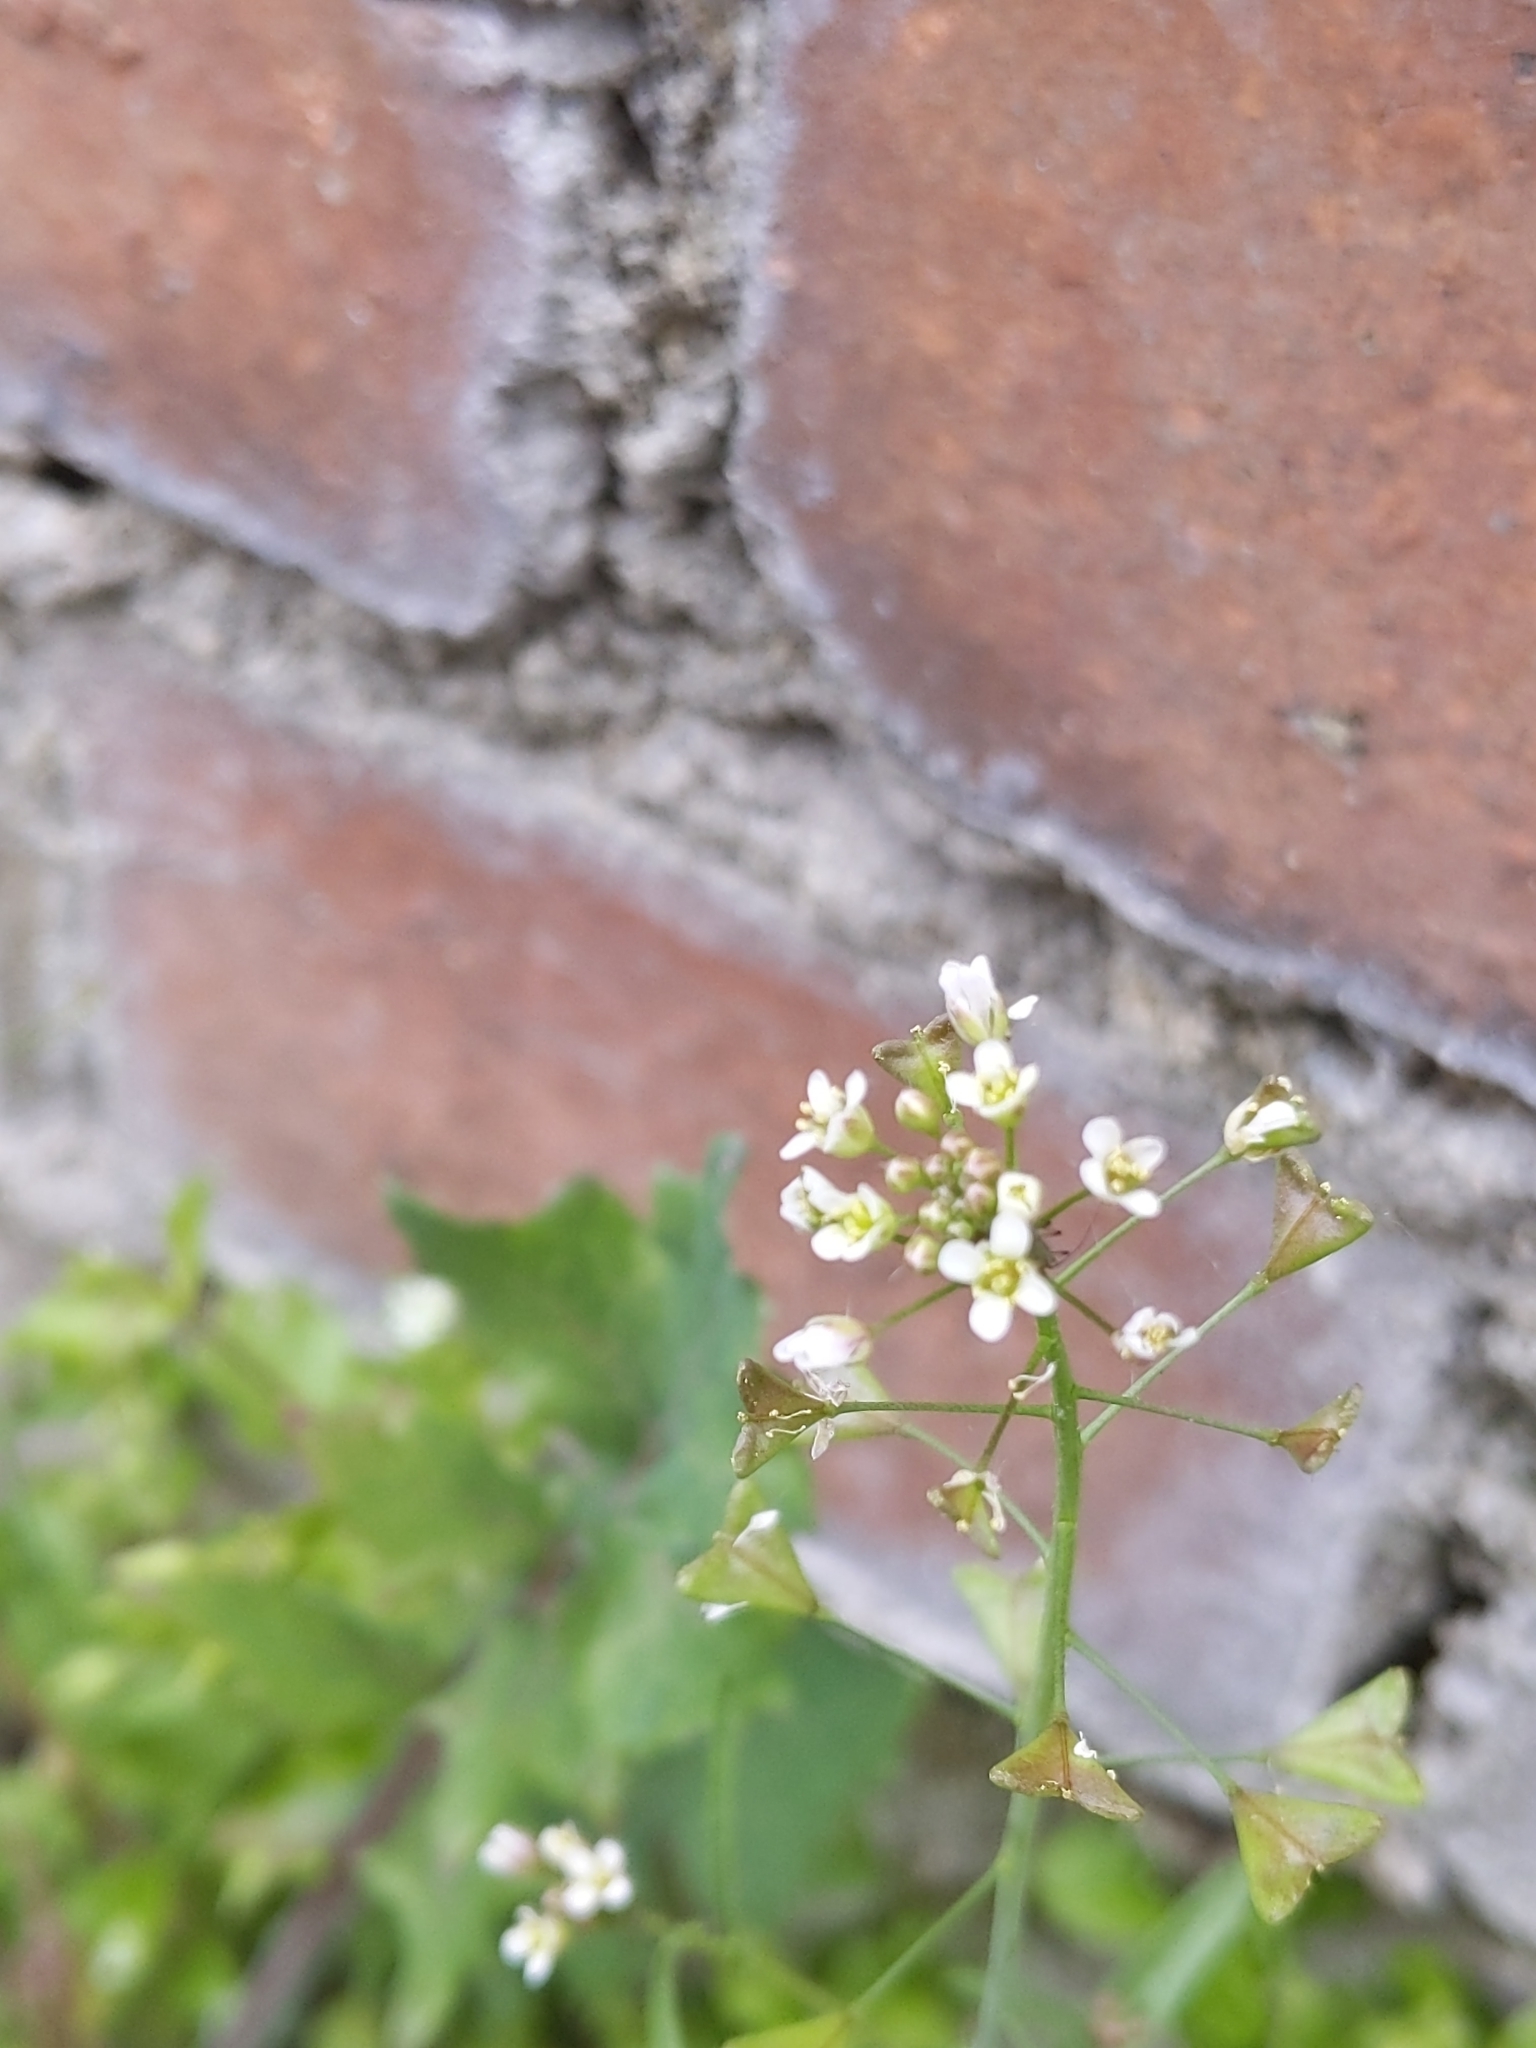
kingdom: Plantae
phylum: Tracheophyta
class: Magnoliopsida
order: Brassicales
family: Brassicaceae
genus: Capsella
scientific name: Capsella bursa-pastoris
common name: Shepherd's purse
